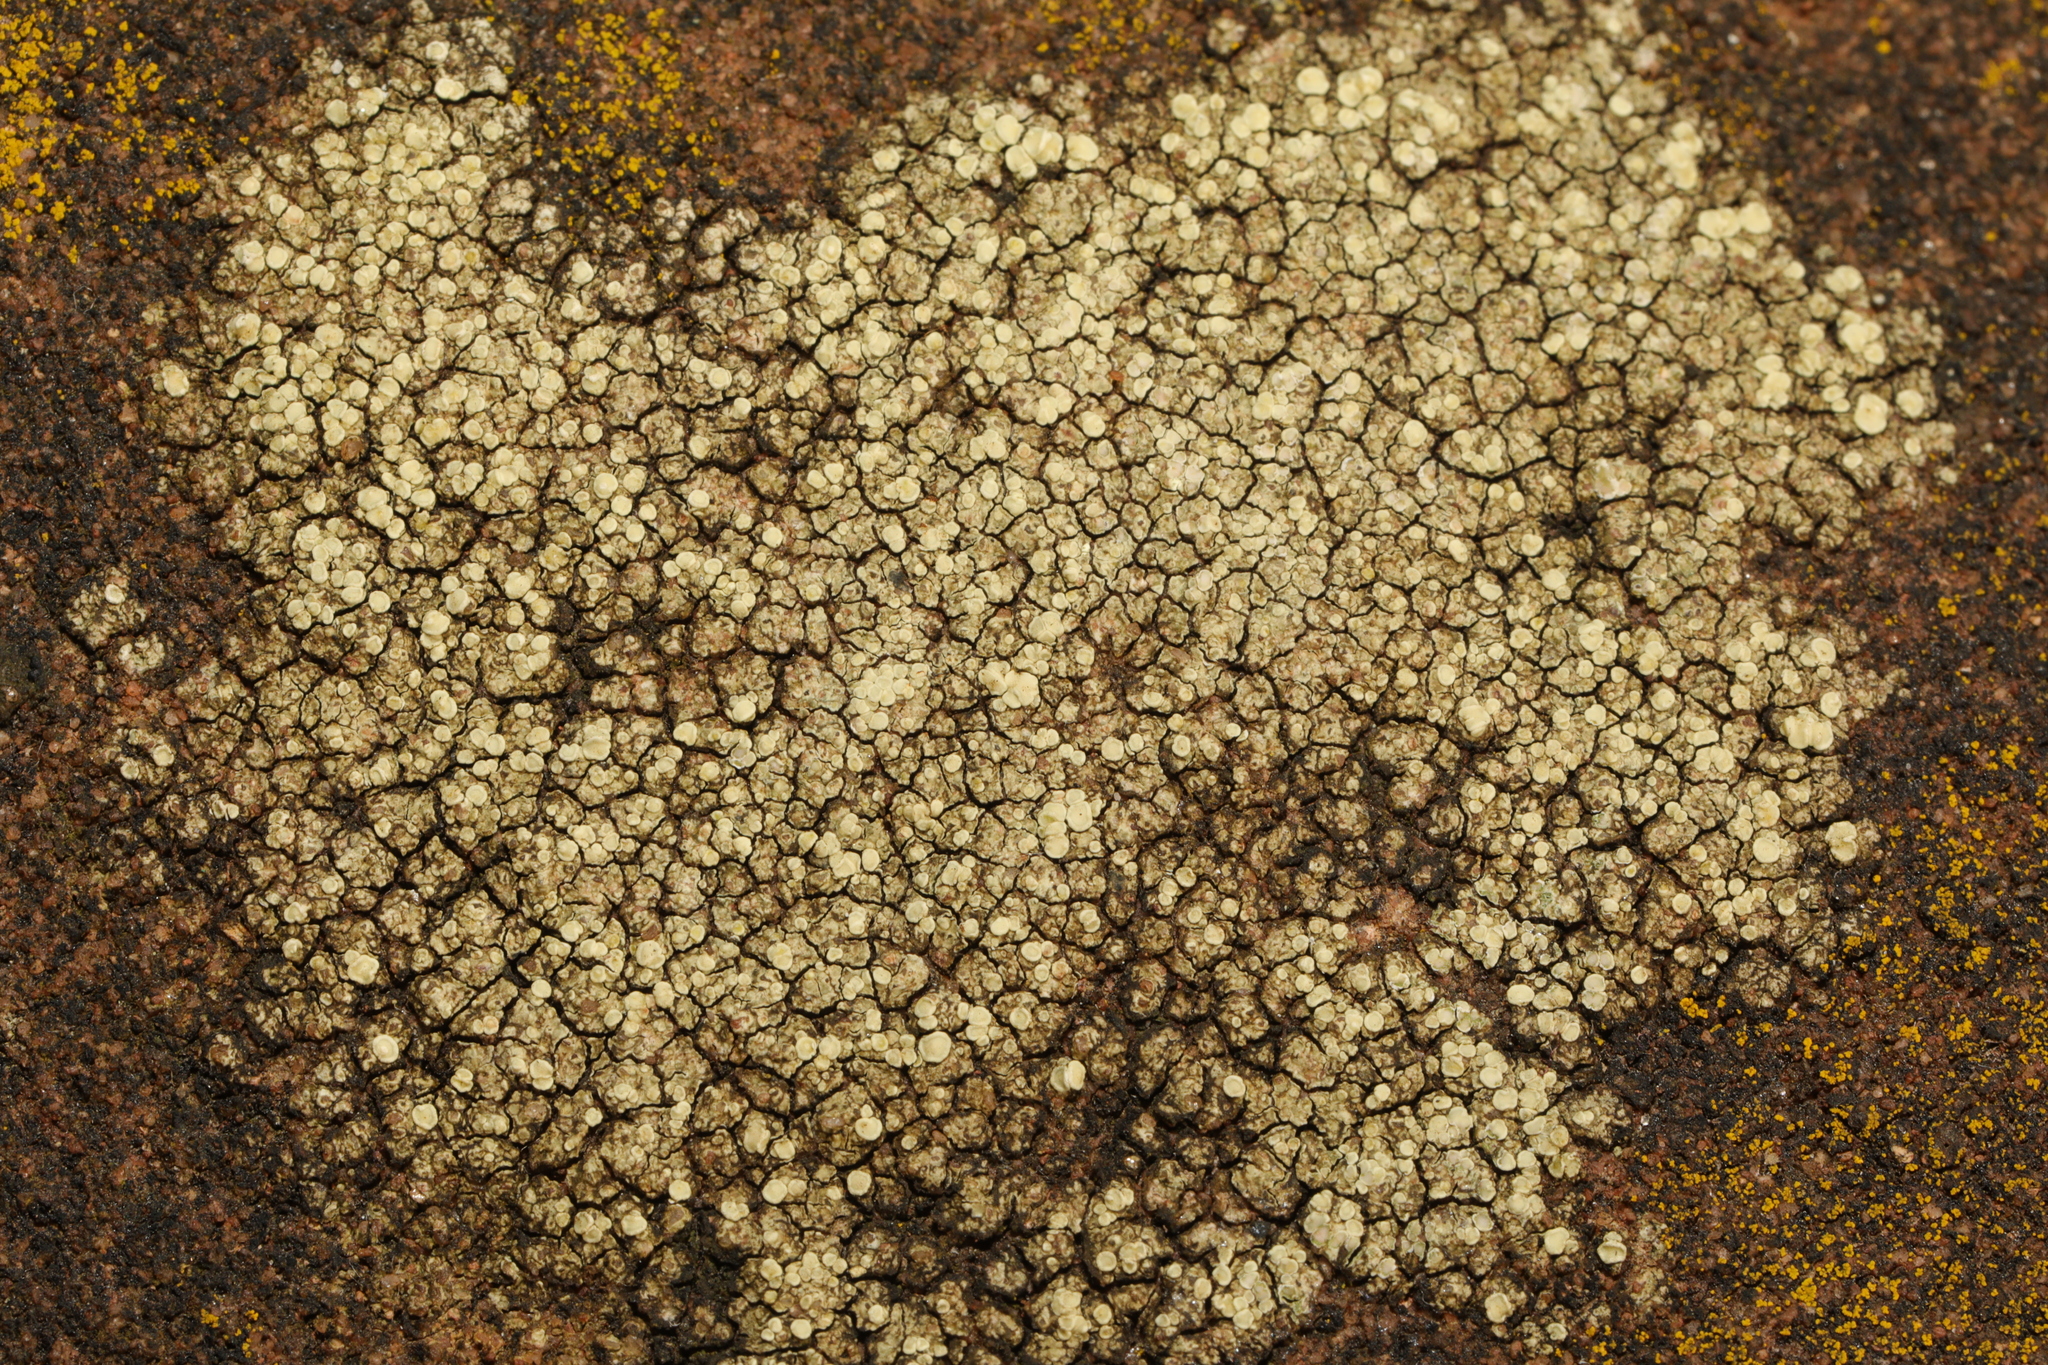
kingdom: Fungi
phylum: Ascomycota
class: Lecanoromycetes
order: Lecanorales
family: Lecanoraceae
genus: Lecanora
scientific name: Lecanora polytropa
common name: Granite-speck rim lichen
